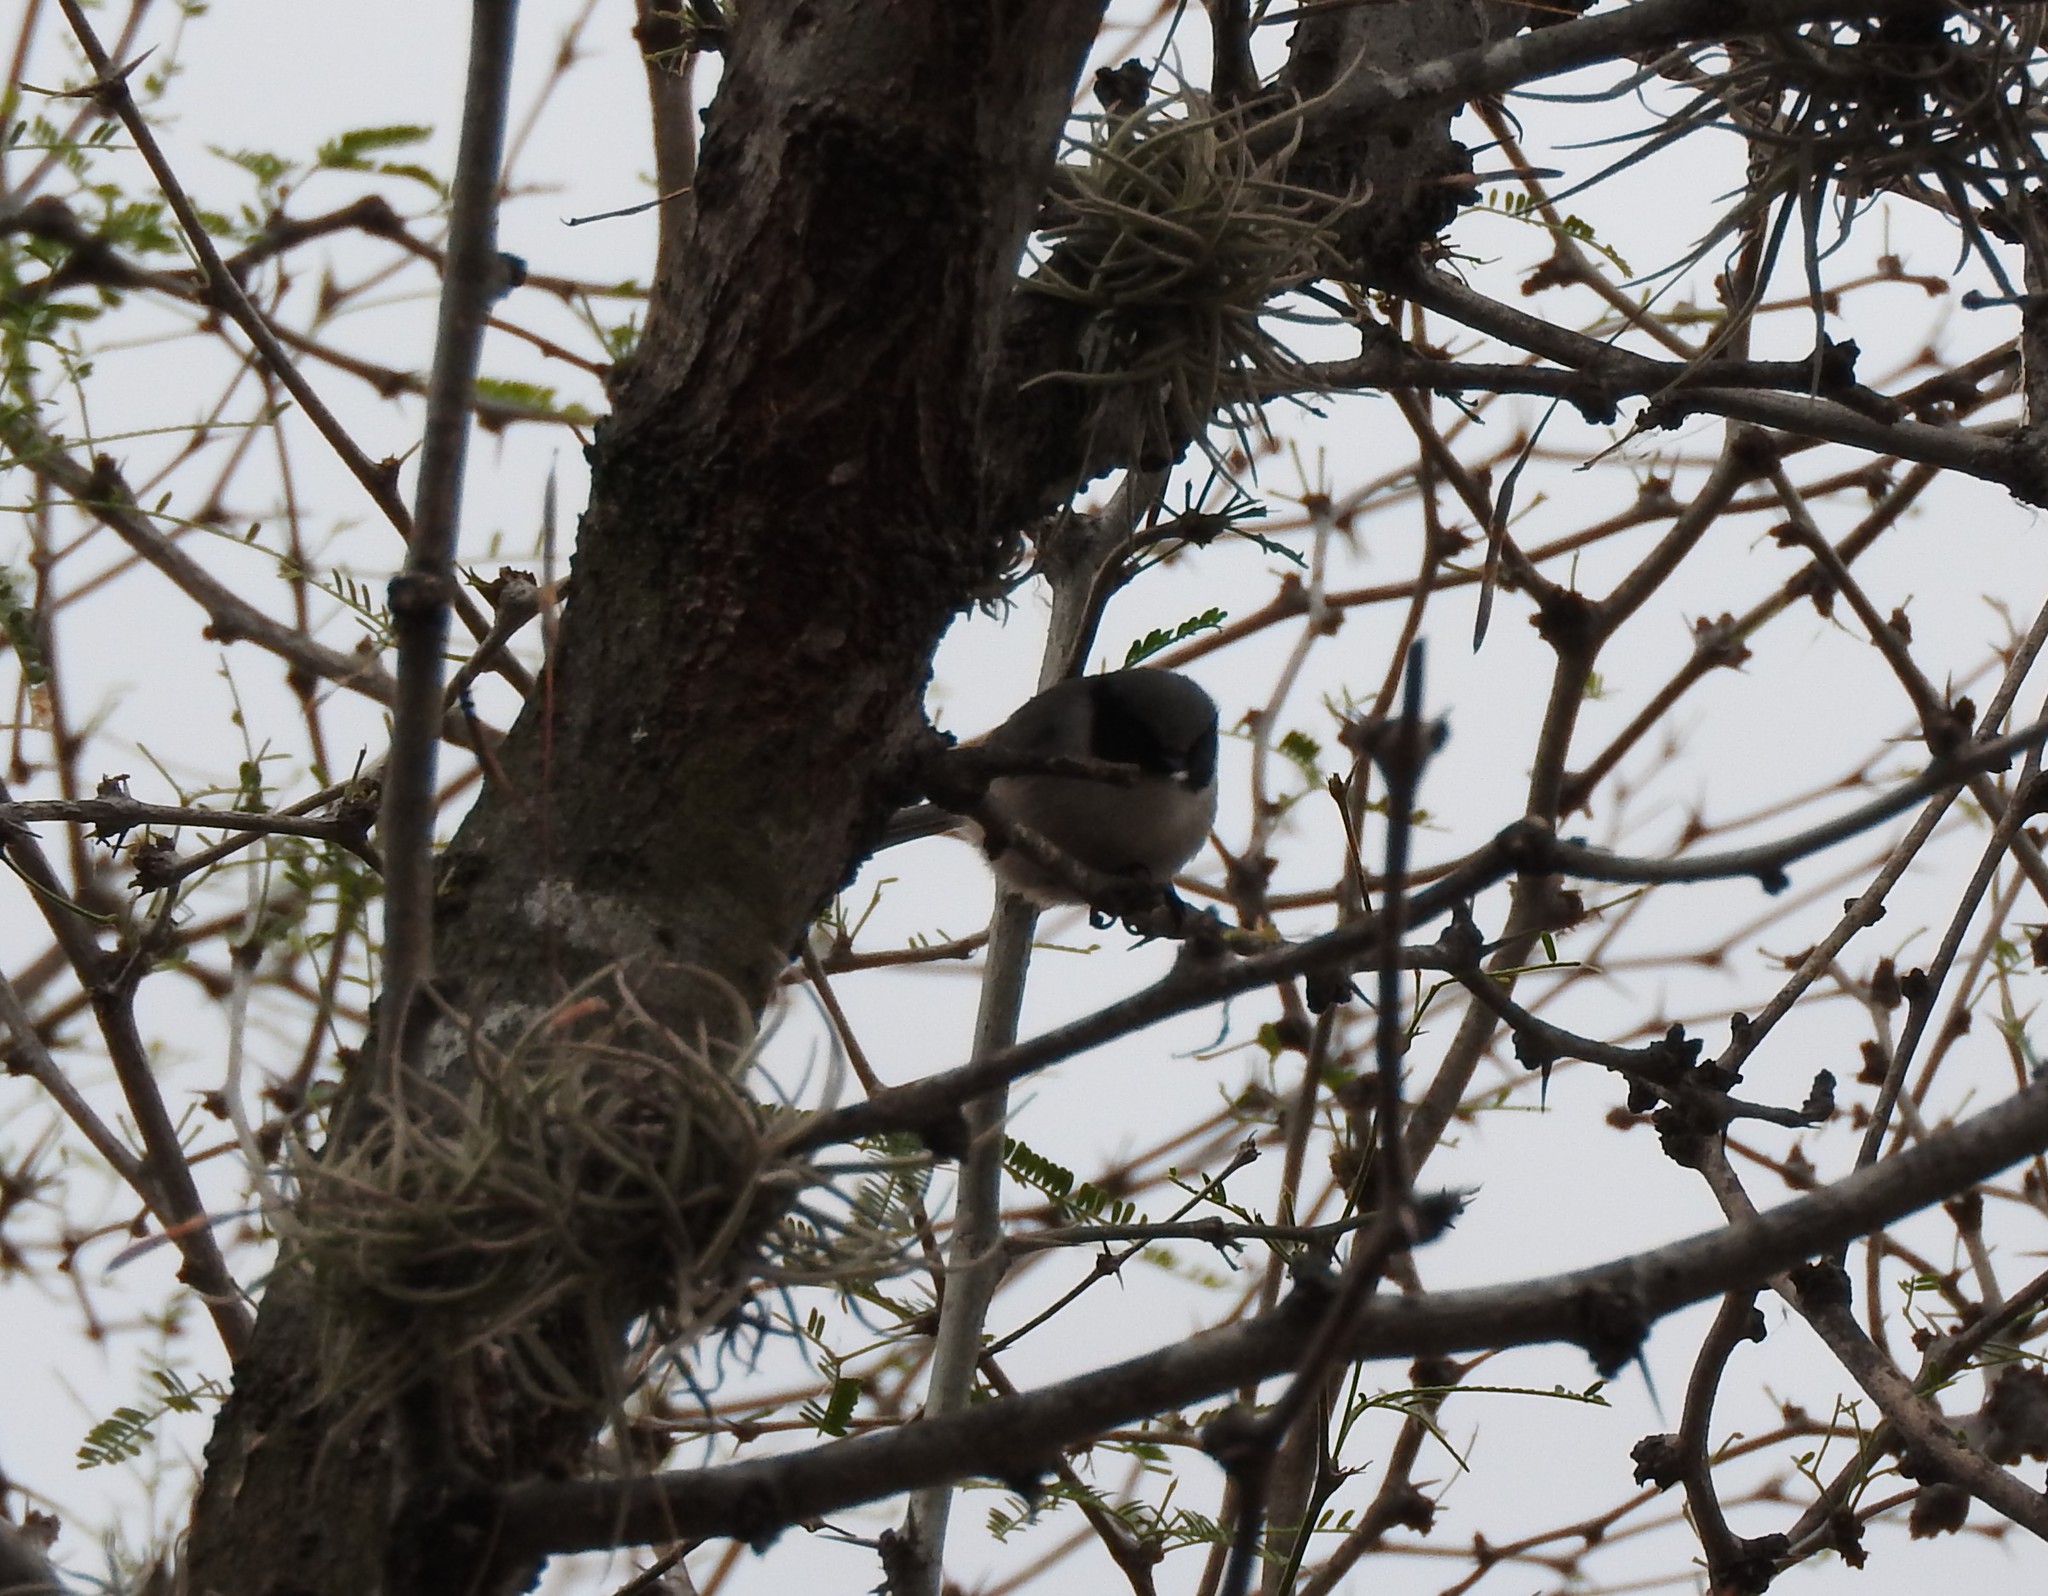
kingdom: Animalia
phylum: Chordata
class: Aves
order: Passeriformes
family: Aegithalidae
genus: Psaltriparus
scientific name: Psaltriparus minimus
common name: American bushtit
